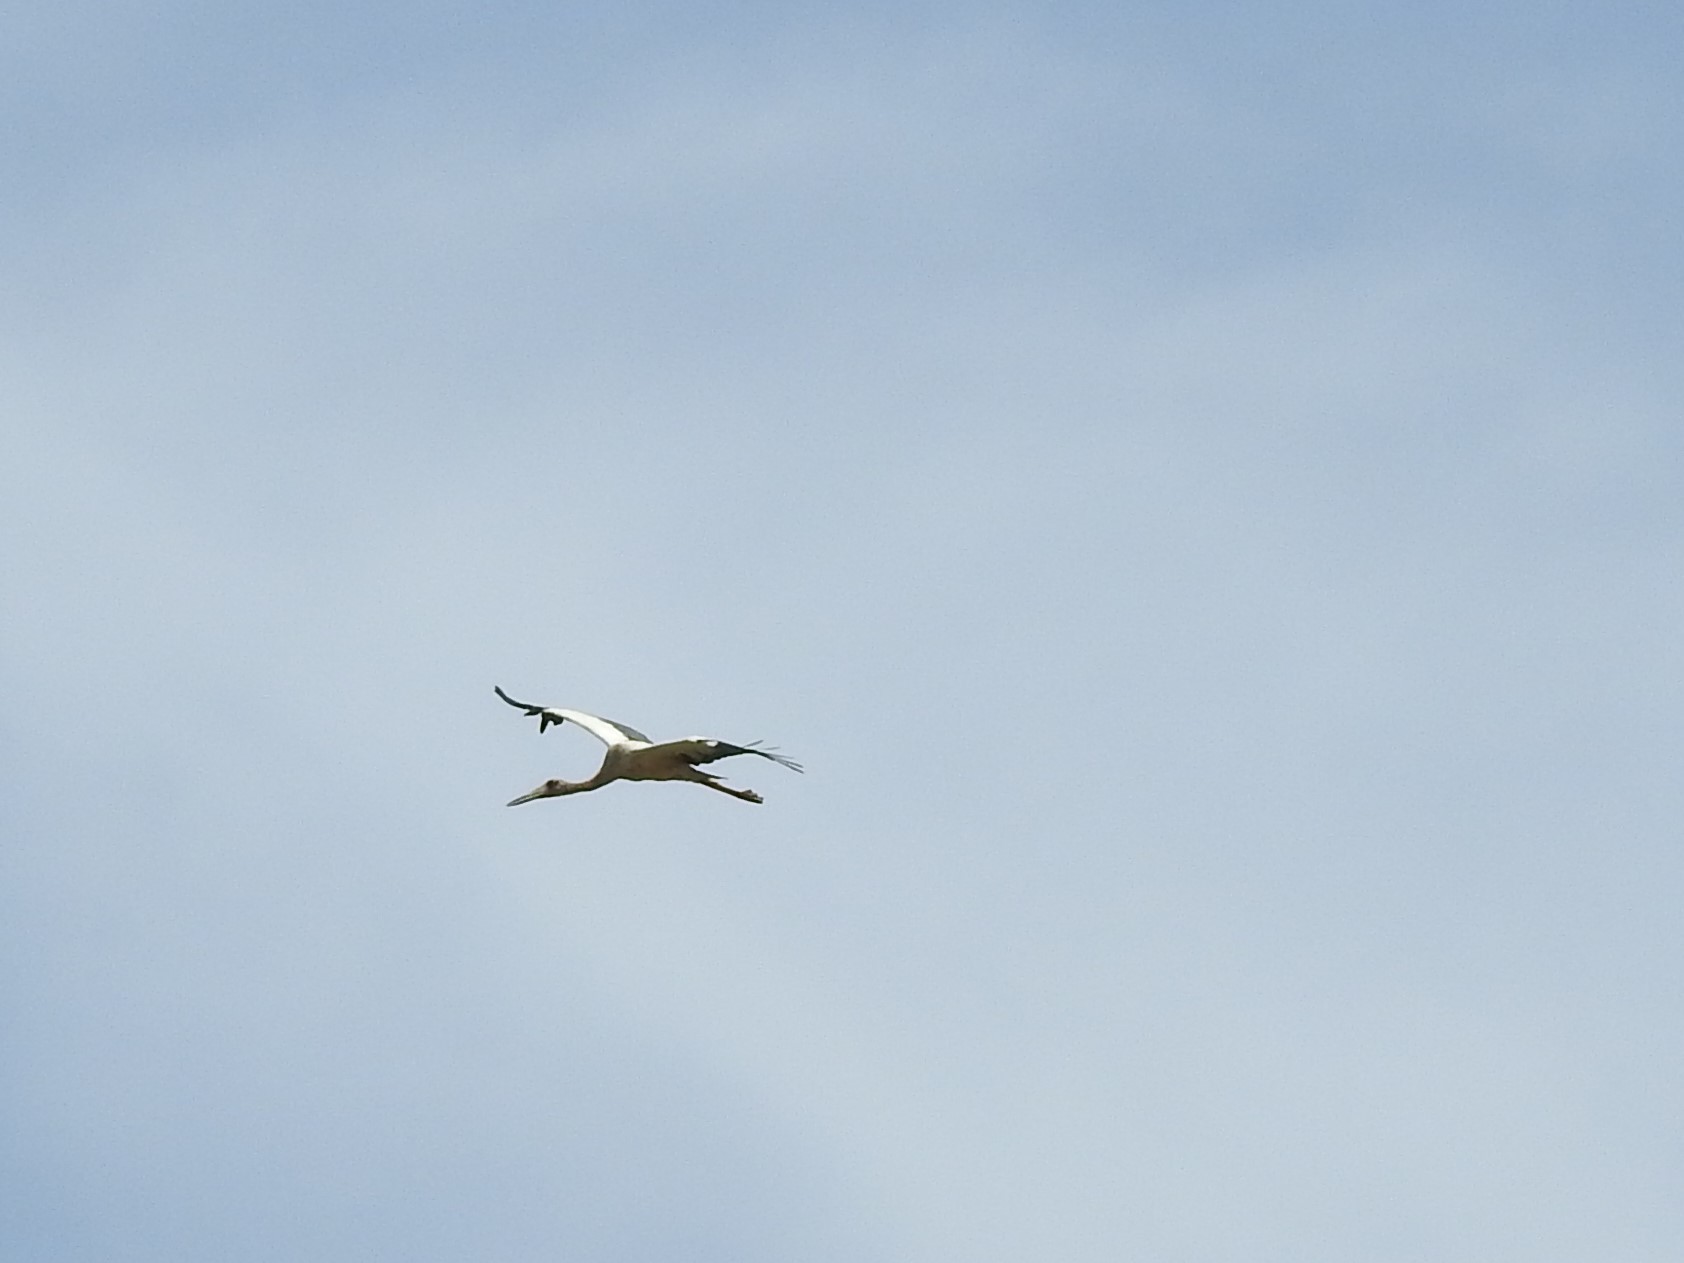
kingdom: Animalia
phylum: Chordata
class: Aves
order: Ciconiiformes
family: Ciconiidae
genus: Ciconia
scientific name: Ciconia maguari
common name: Maguari stork
